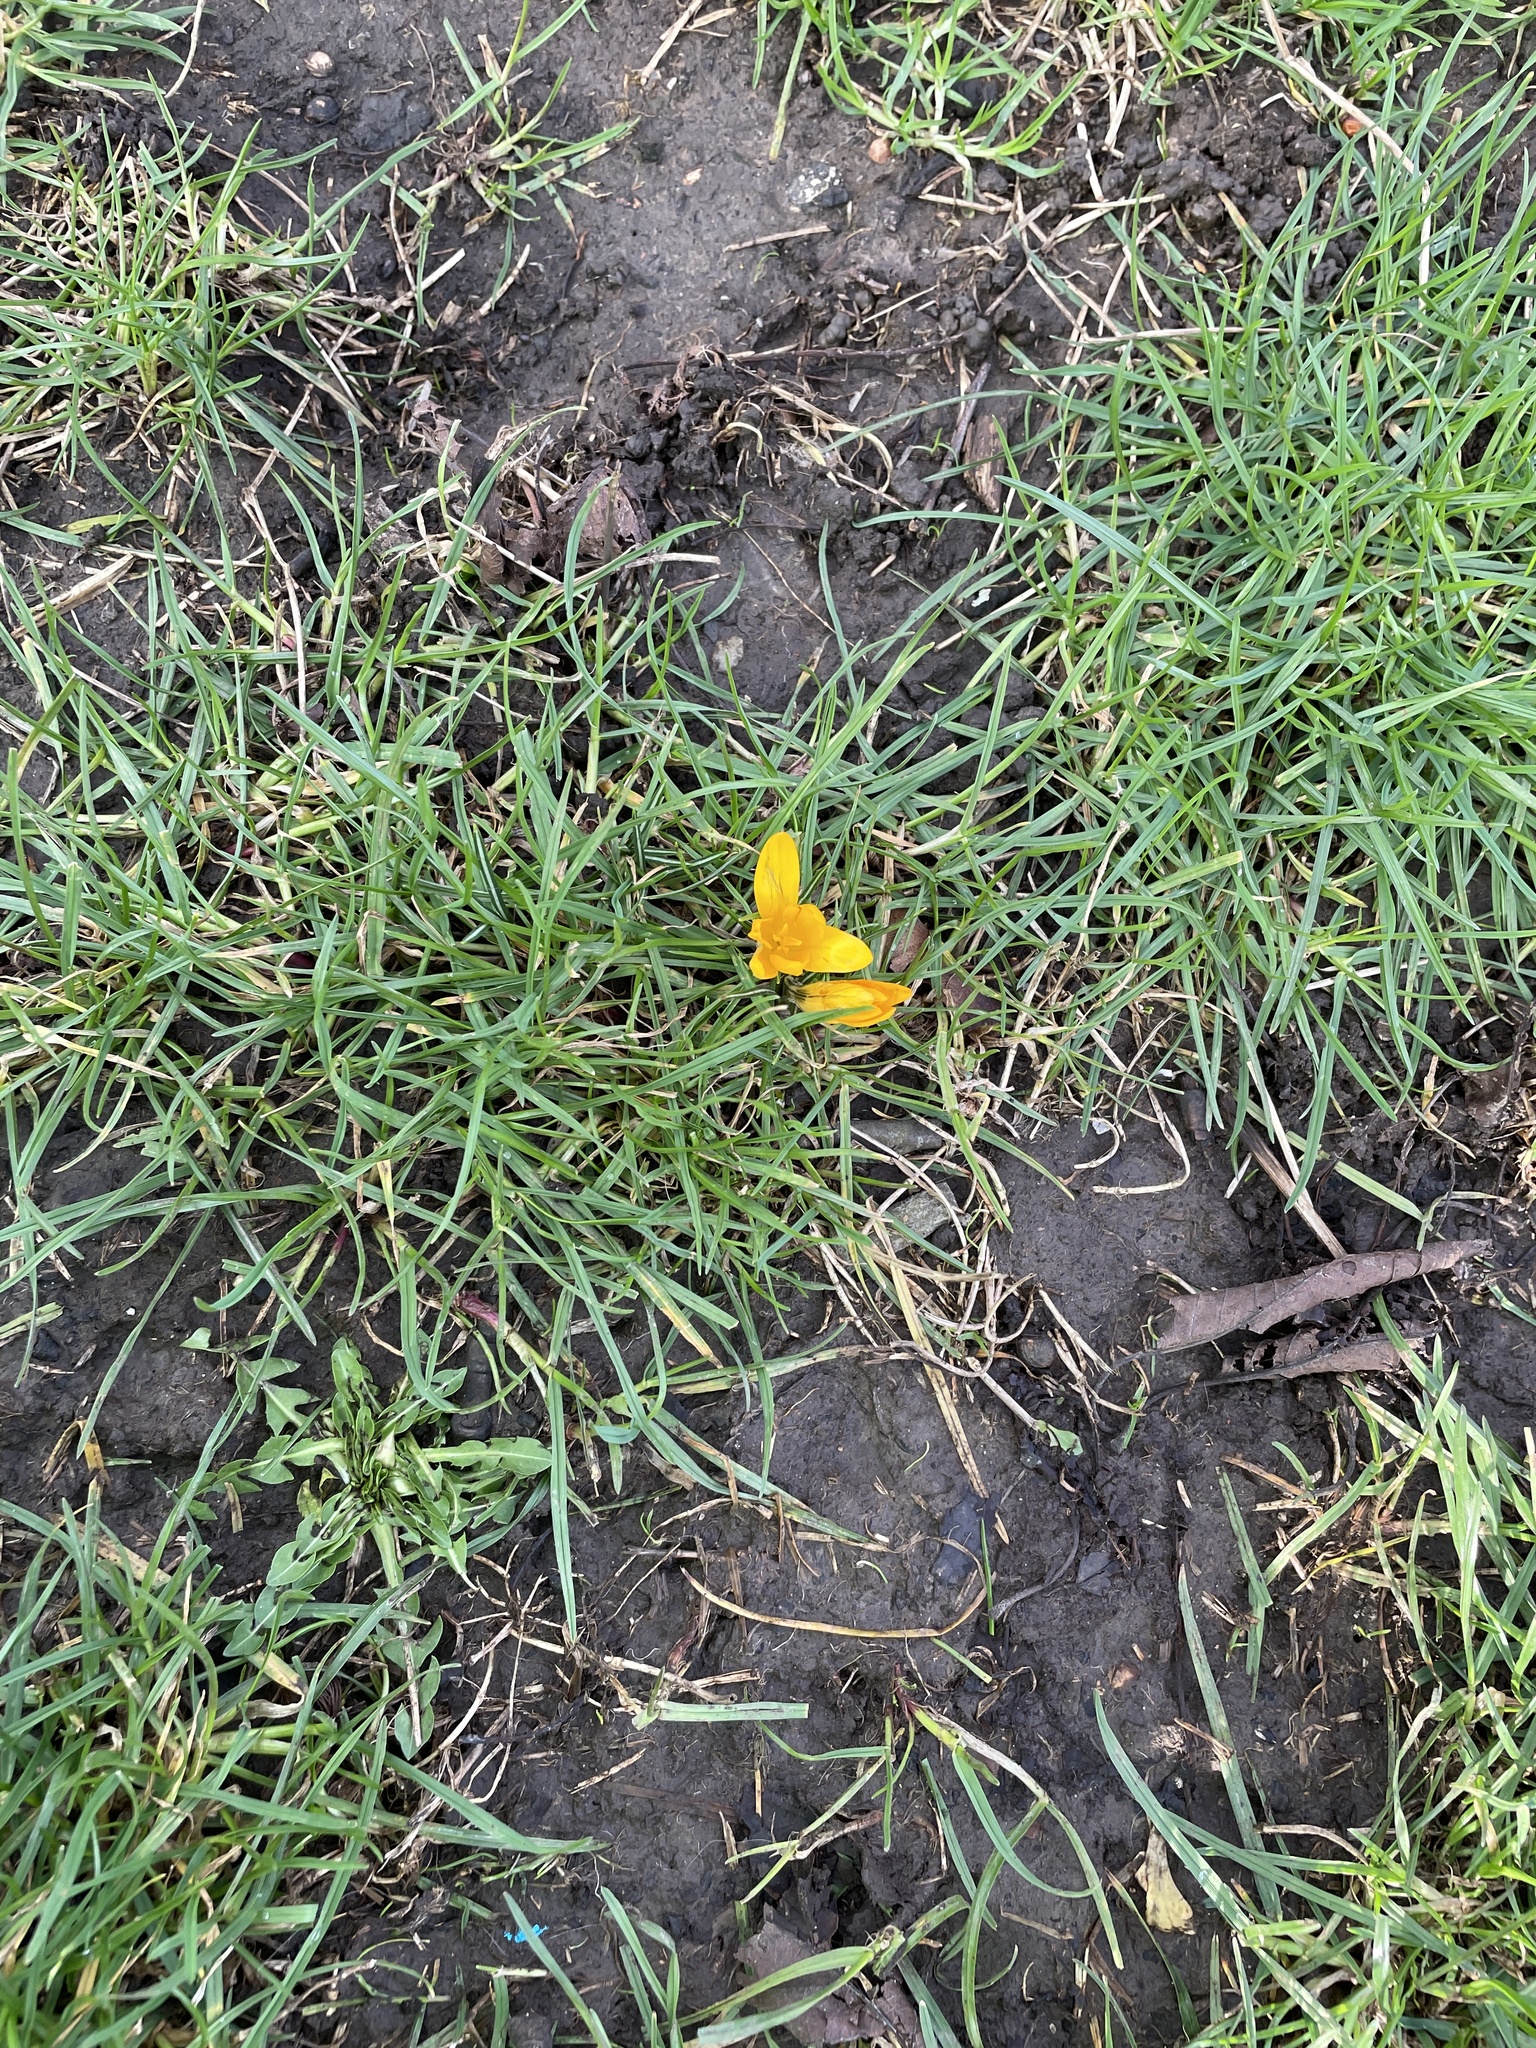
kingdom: Plantae
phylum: Tracheophyta
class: Liliopsida
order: Asparagales
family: Iridaceae
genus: Crocus
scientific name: Crocus luteus
